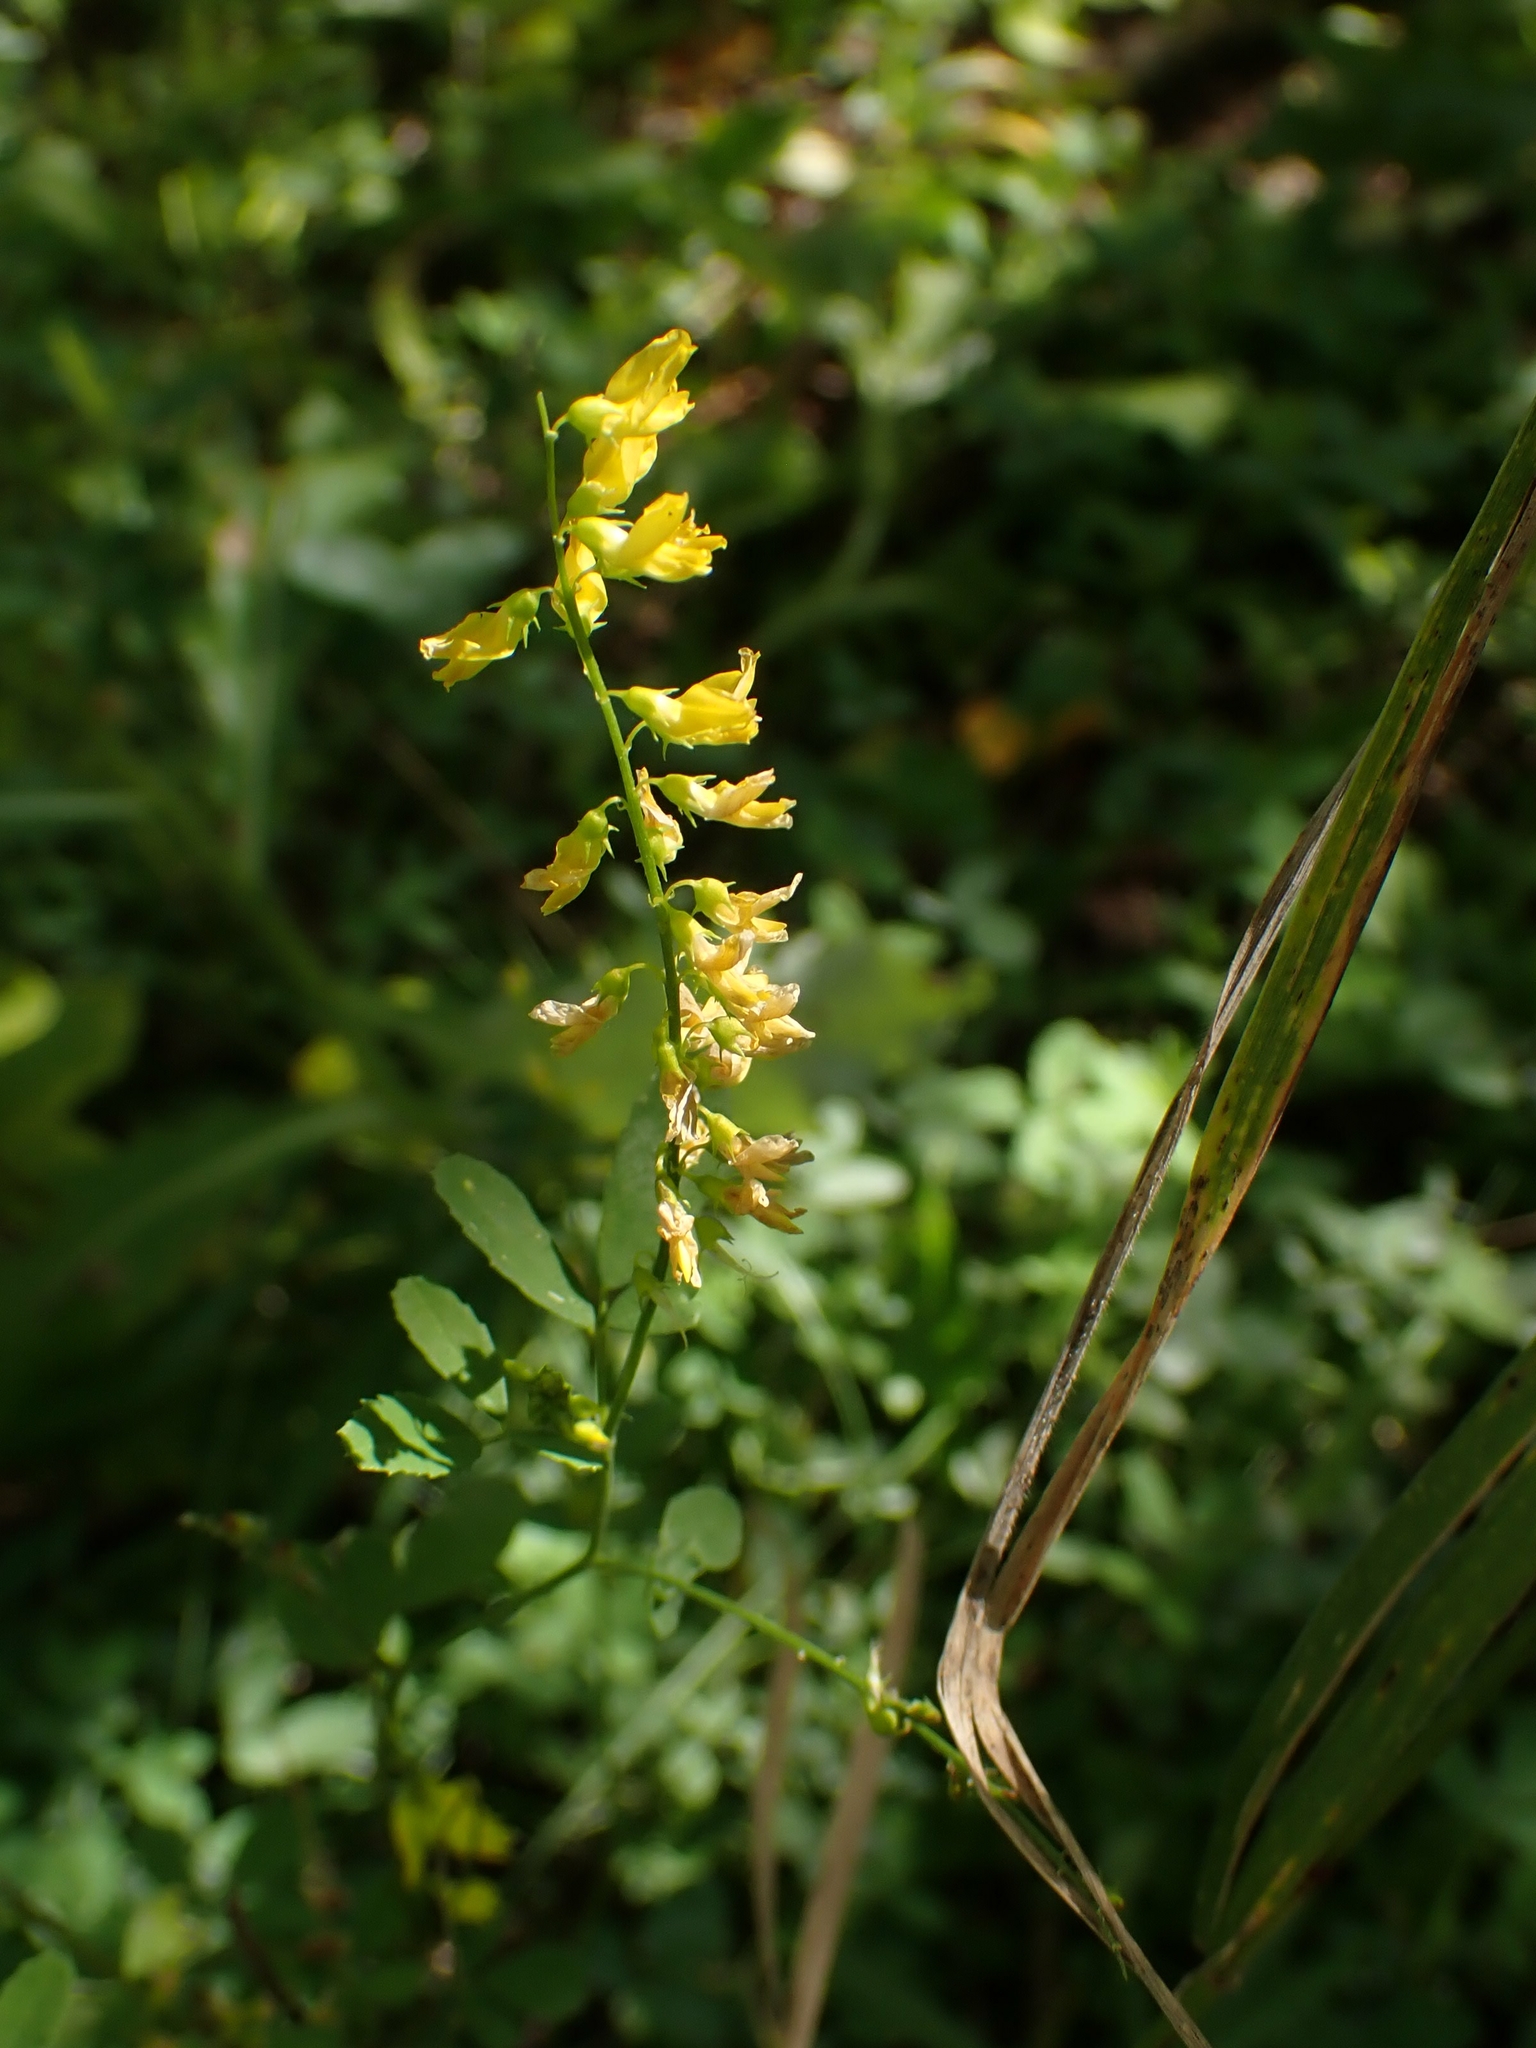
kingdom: Plantae
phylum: Tracheophyta
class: Magnoliopsida
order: Fabales
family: Fabaceae
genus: Melilotus
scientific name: Melilotus officinalis
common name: Sweetclover
